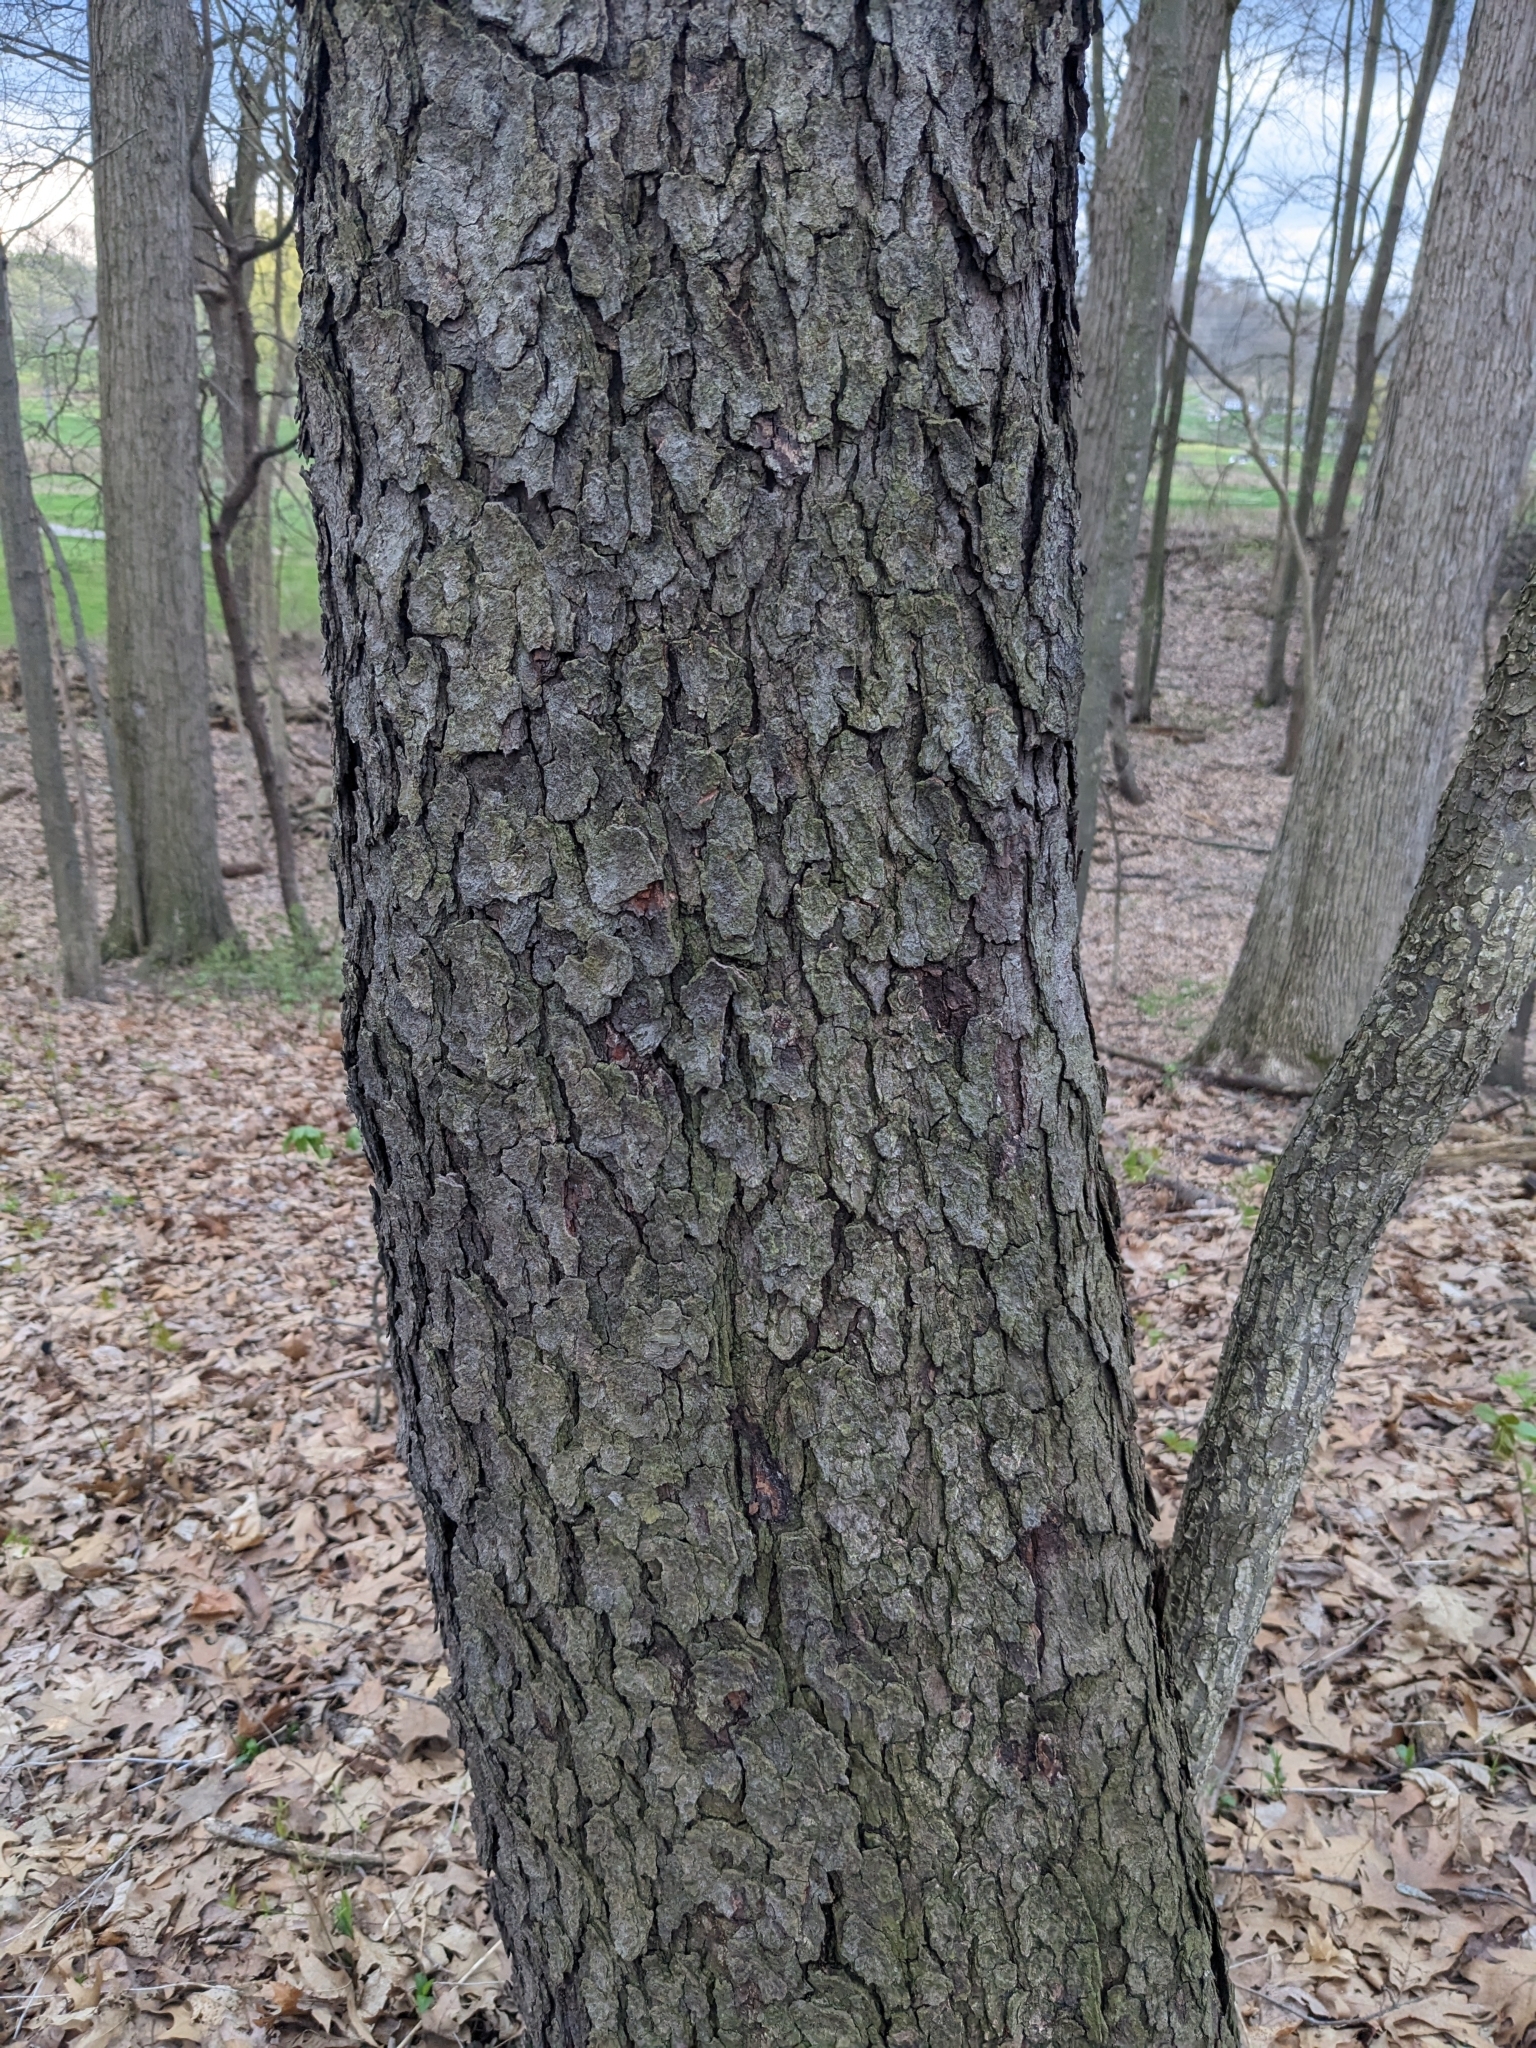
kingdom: Plantae
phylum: Tracheophyta
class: Magnoliopsida
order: Rosales
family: Rosaceae
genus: Prunus
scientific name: Prunus serotina
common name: Black cherry
